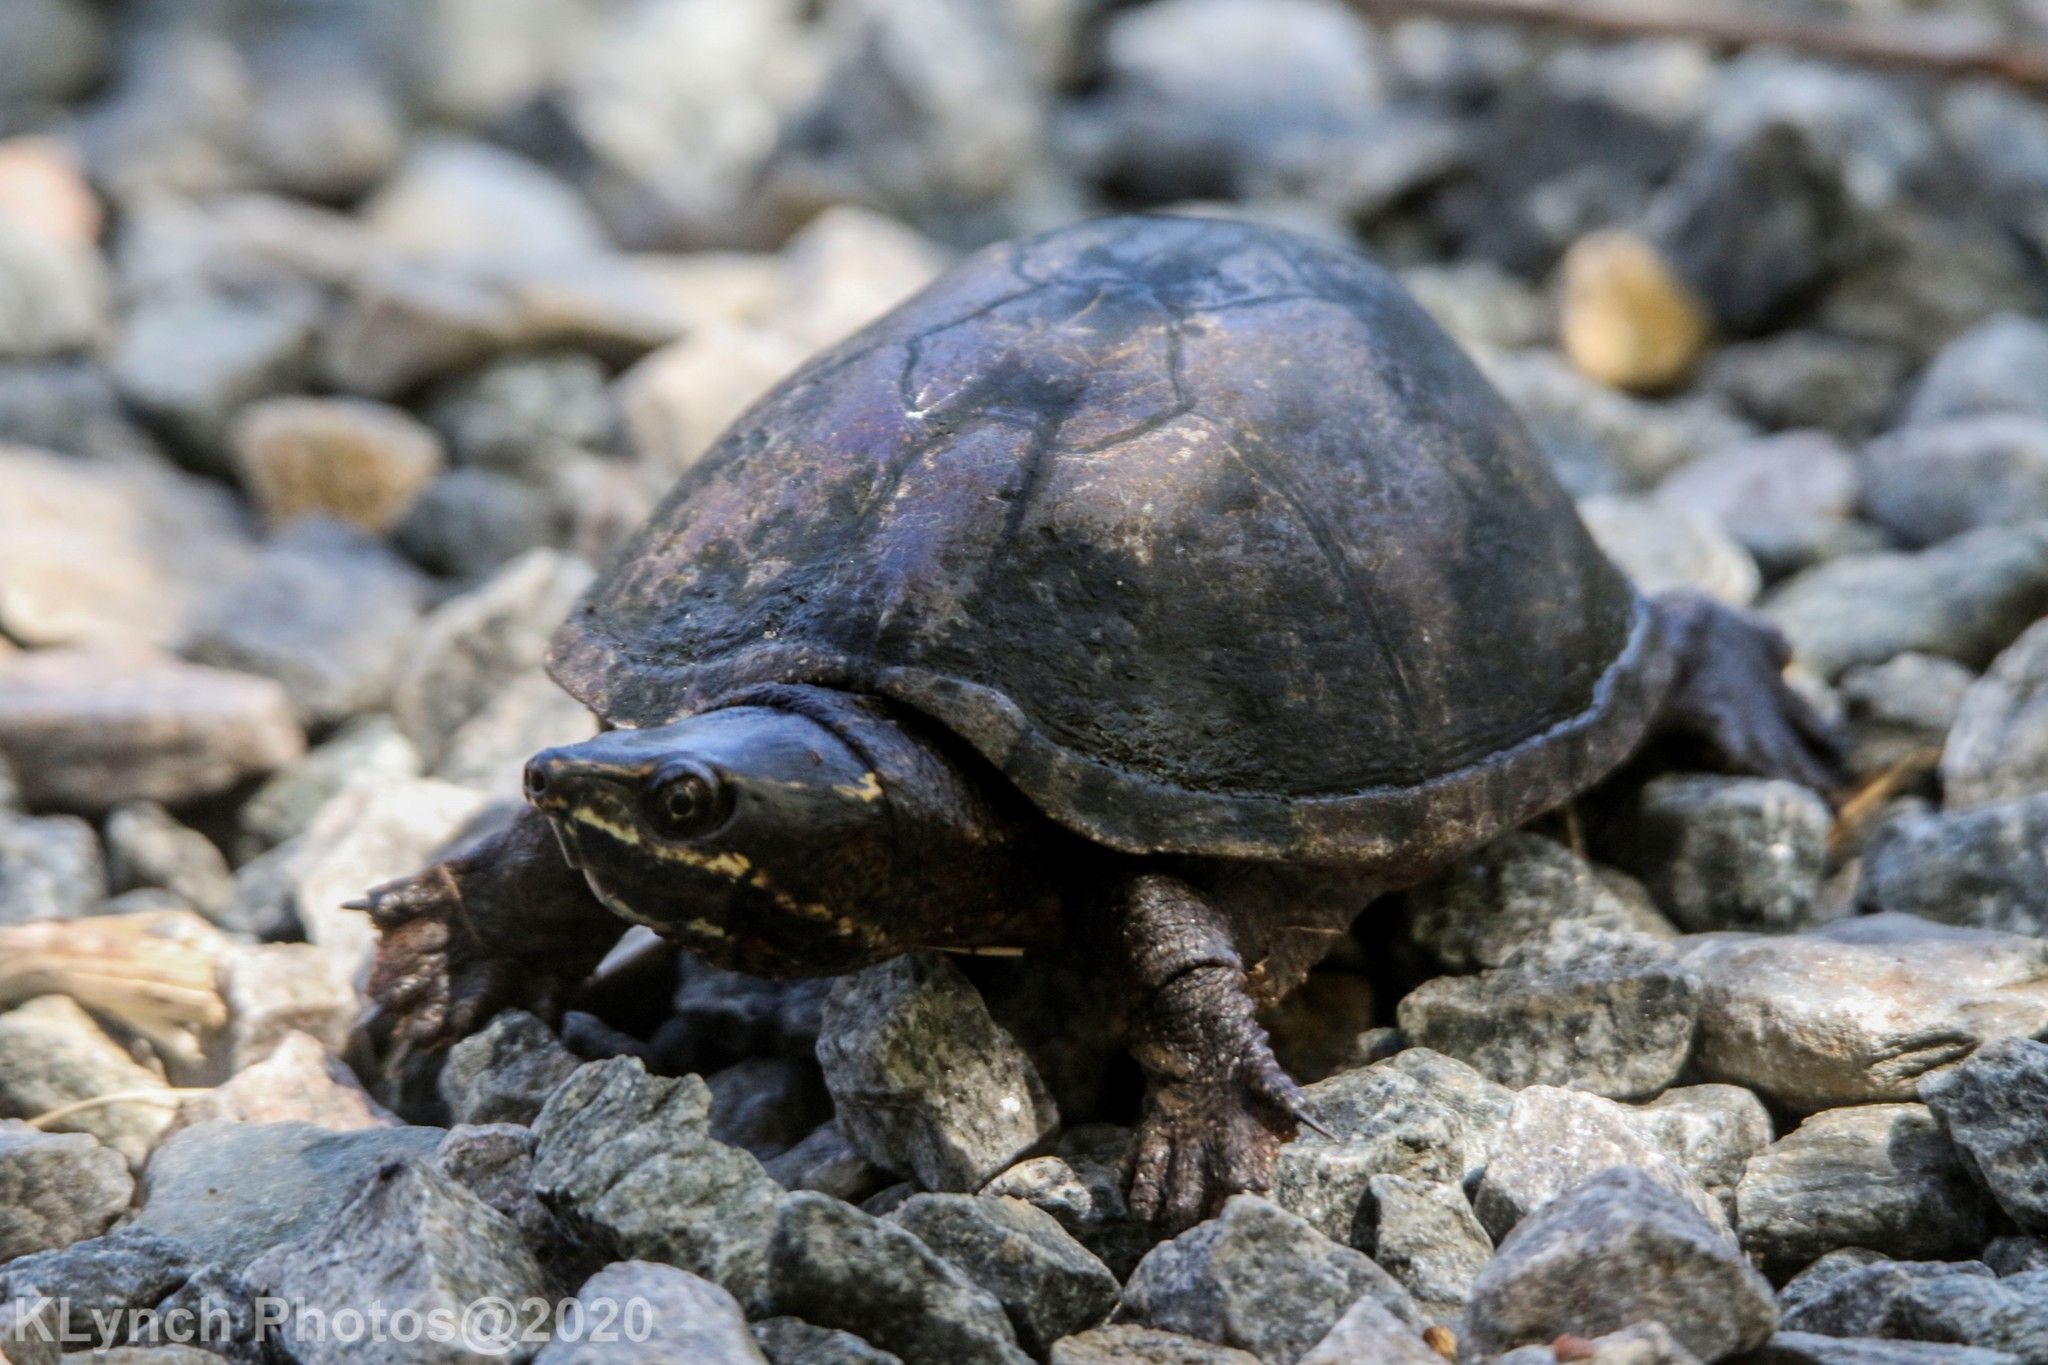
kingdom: Animalia
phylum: Chordata
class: Testudines
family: Kinosternidae
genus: Sternotherus
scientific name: Sternotherus odoratus
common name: Common musk turtle
